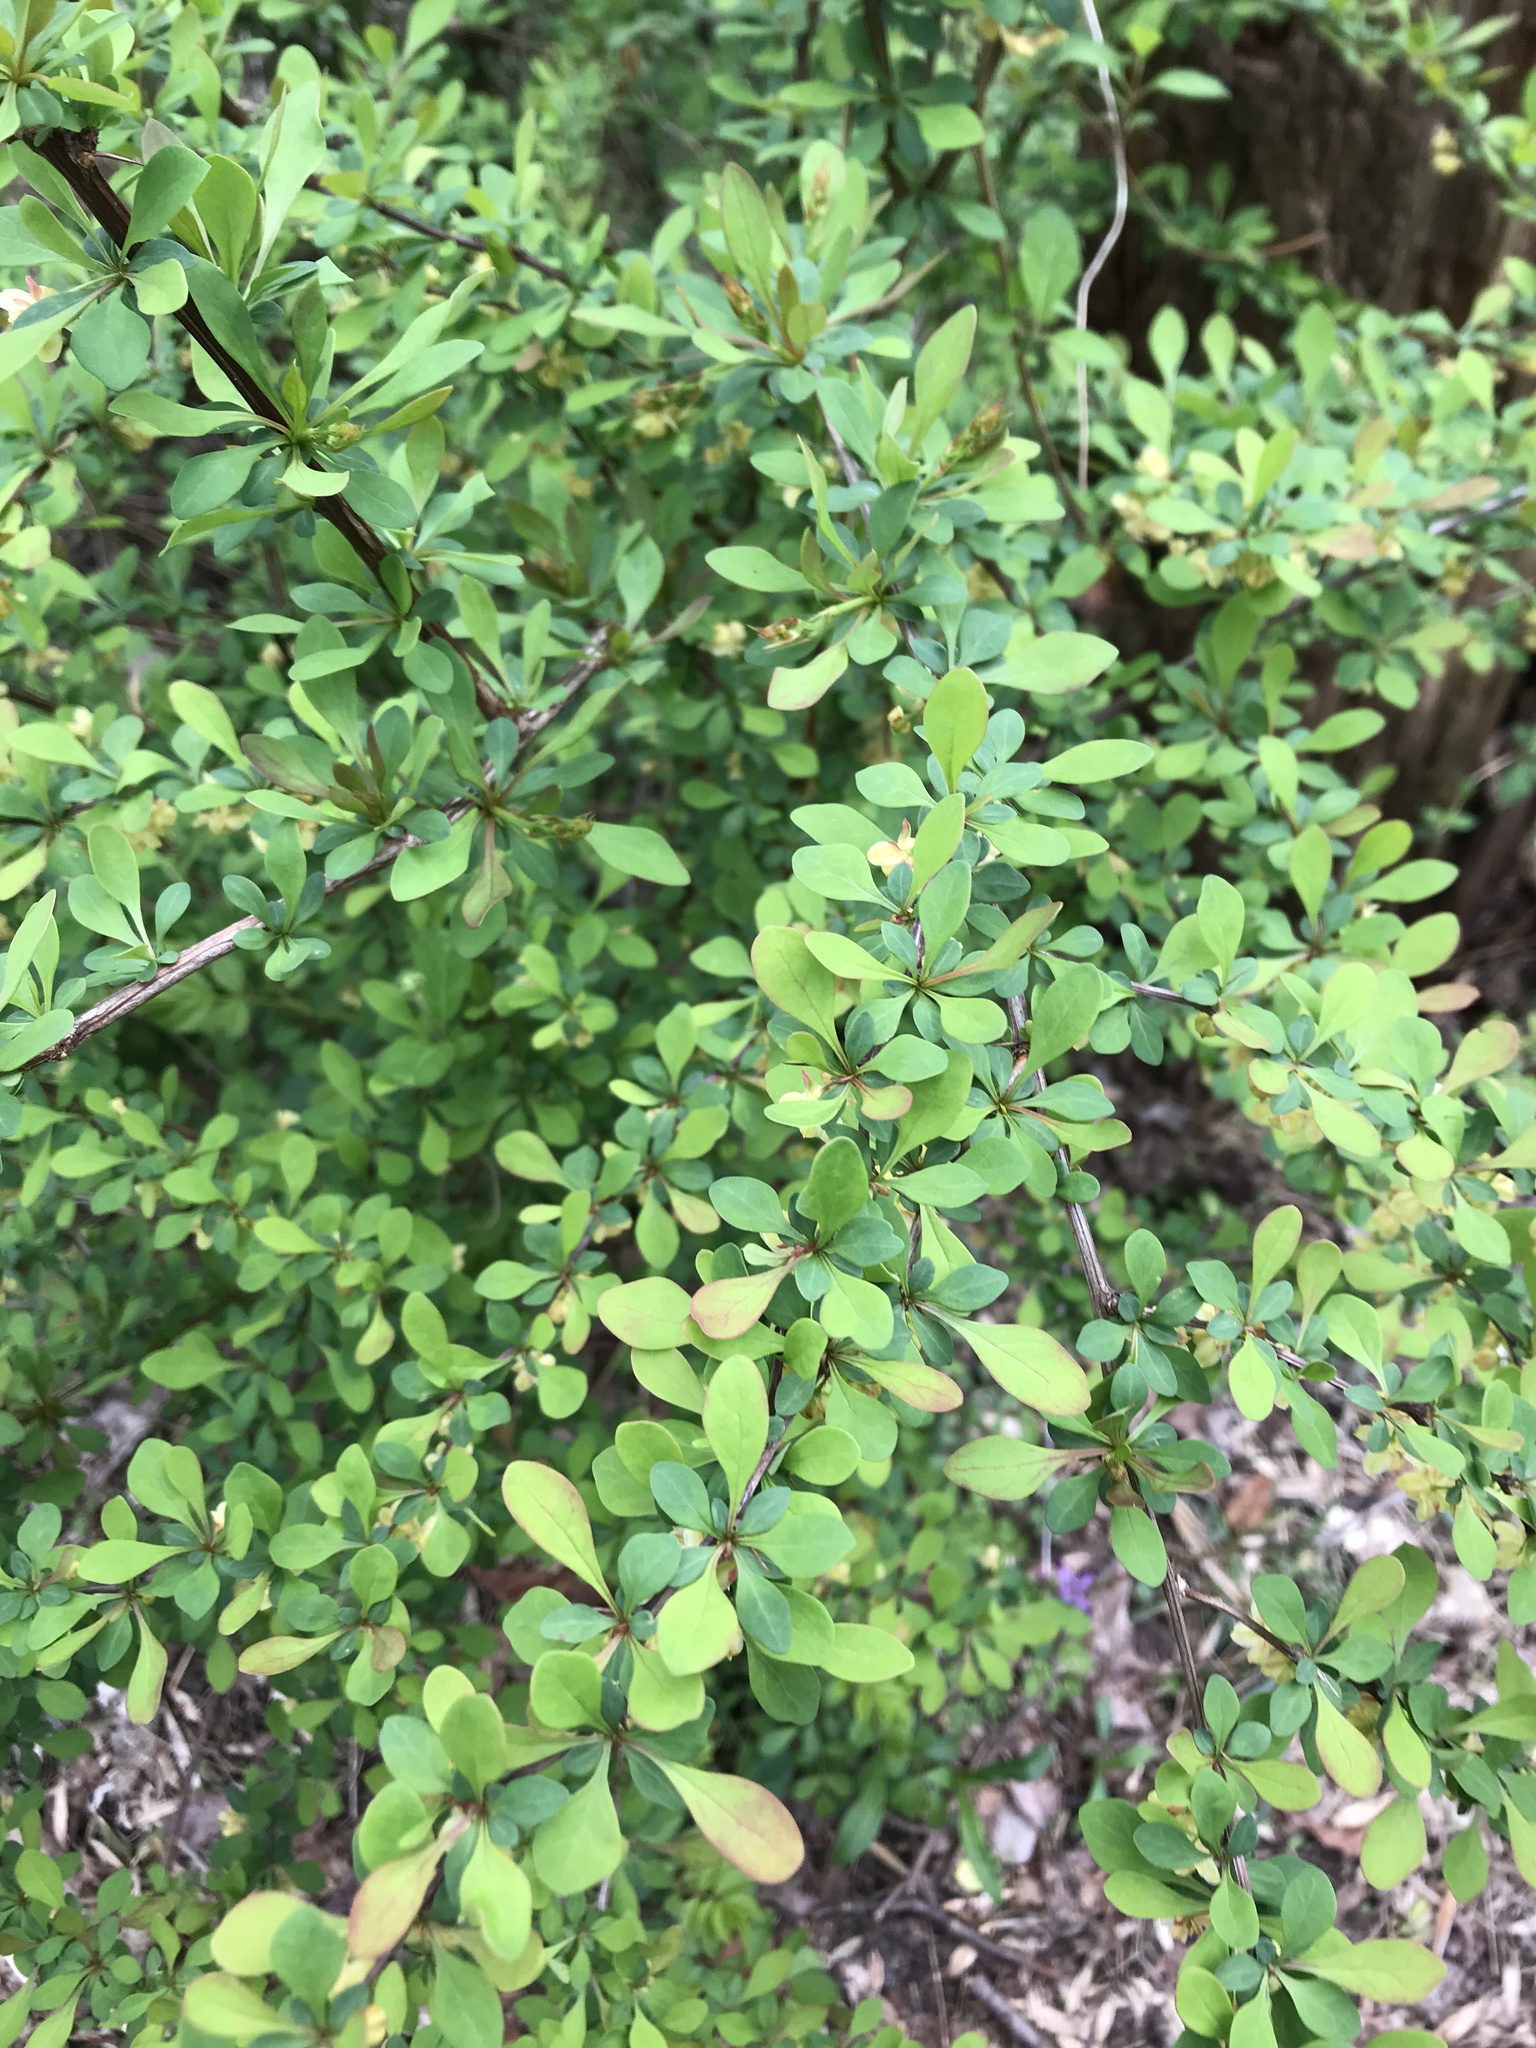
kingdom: Plantae
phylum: Tracheophyta
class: Magnoliopsida
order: Ranunculales
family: Berberidaceae
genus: Berberis
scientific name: Berberis thunbergii
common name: Japanese barberry
